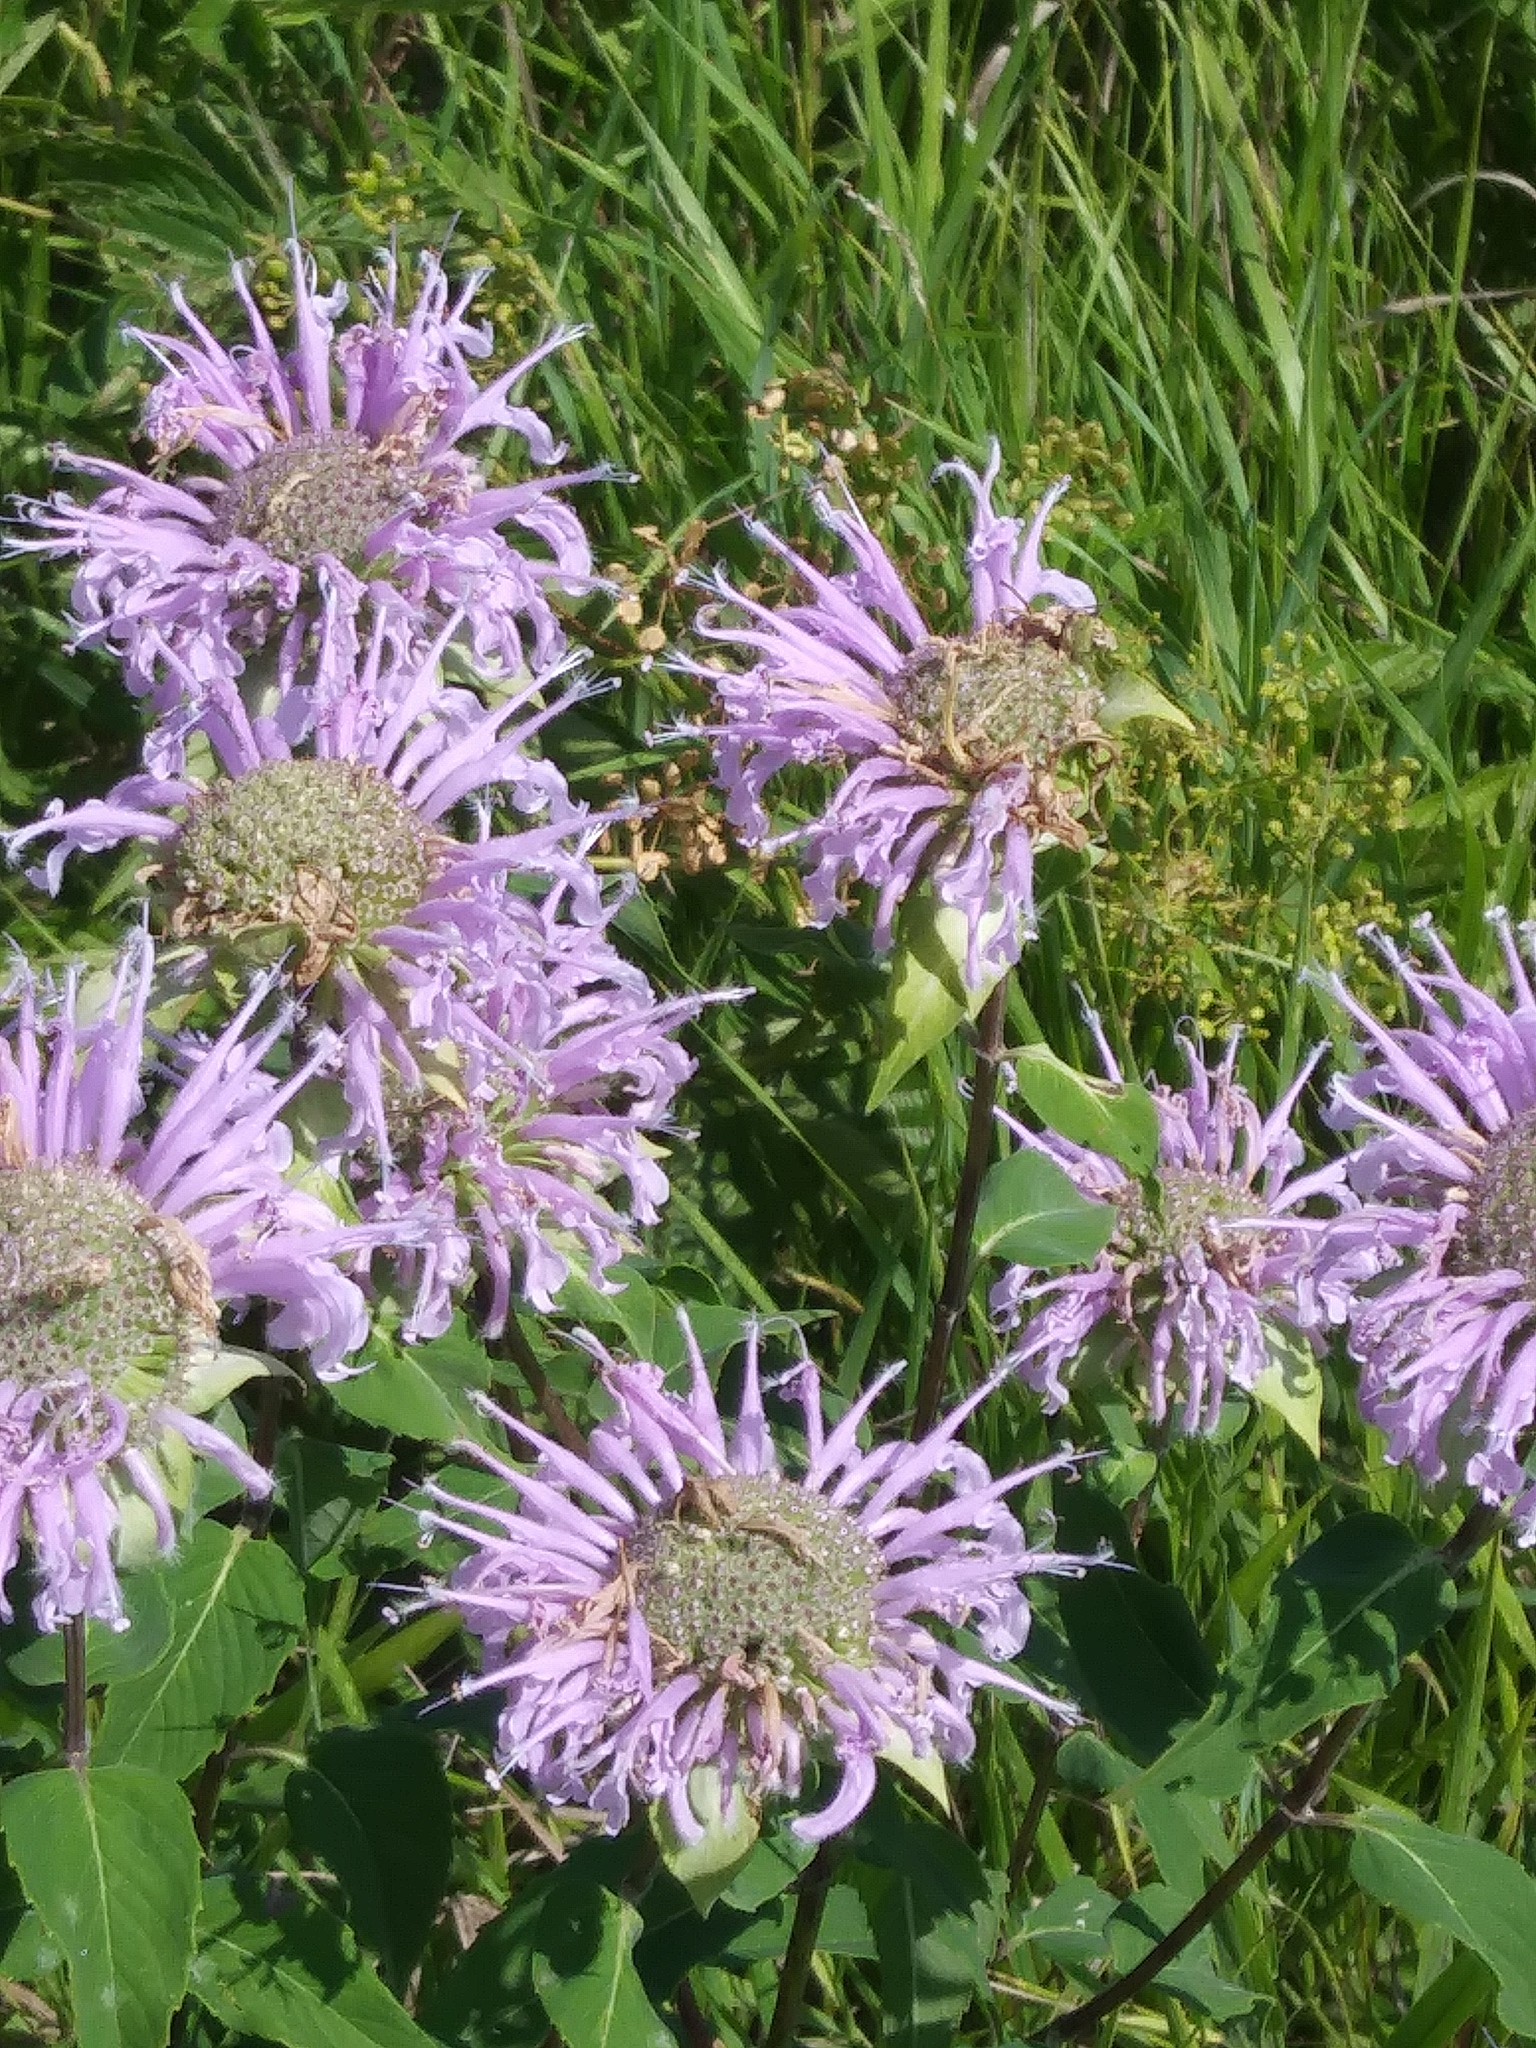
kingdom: Plantae
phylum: Tracheophyta
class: Magnoliopsida
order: Lamiales
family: Lamiaceae
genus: Monarda
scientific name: Monarda fistulosa
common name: Purple beebalm
